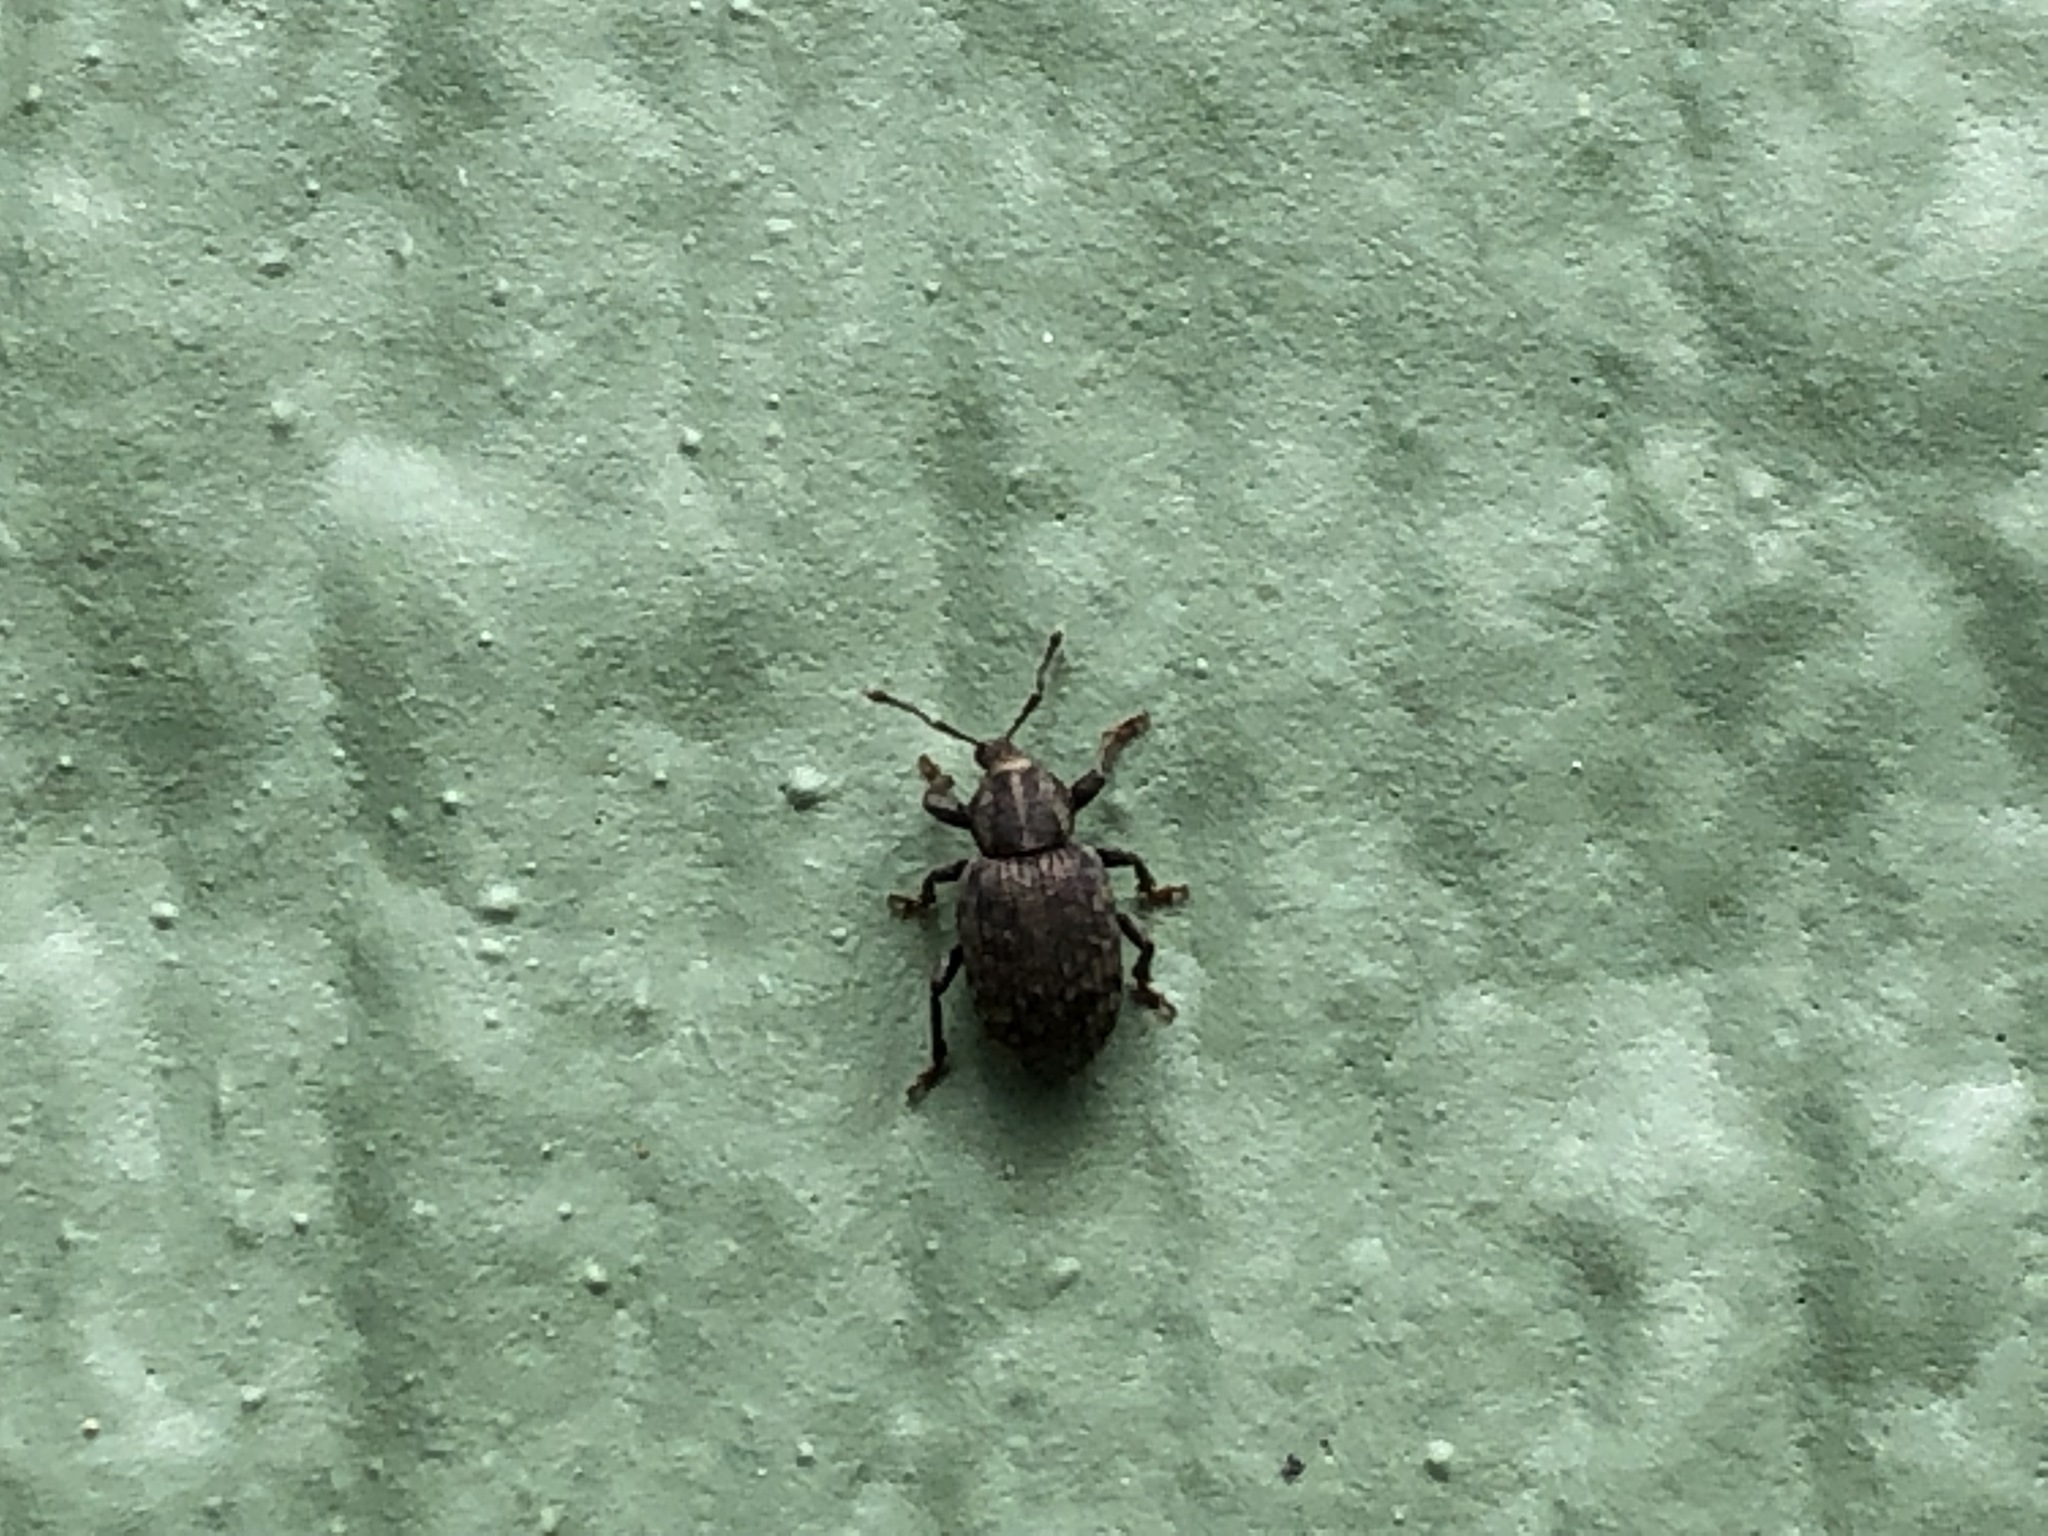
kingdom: Animalia
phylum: Arthropoda
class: Insecta
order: Coleoptera
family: Curculionidae
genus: Lepidophorus
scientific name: Lepidophorus inquinatus
